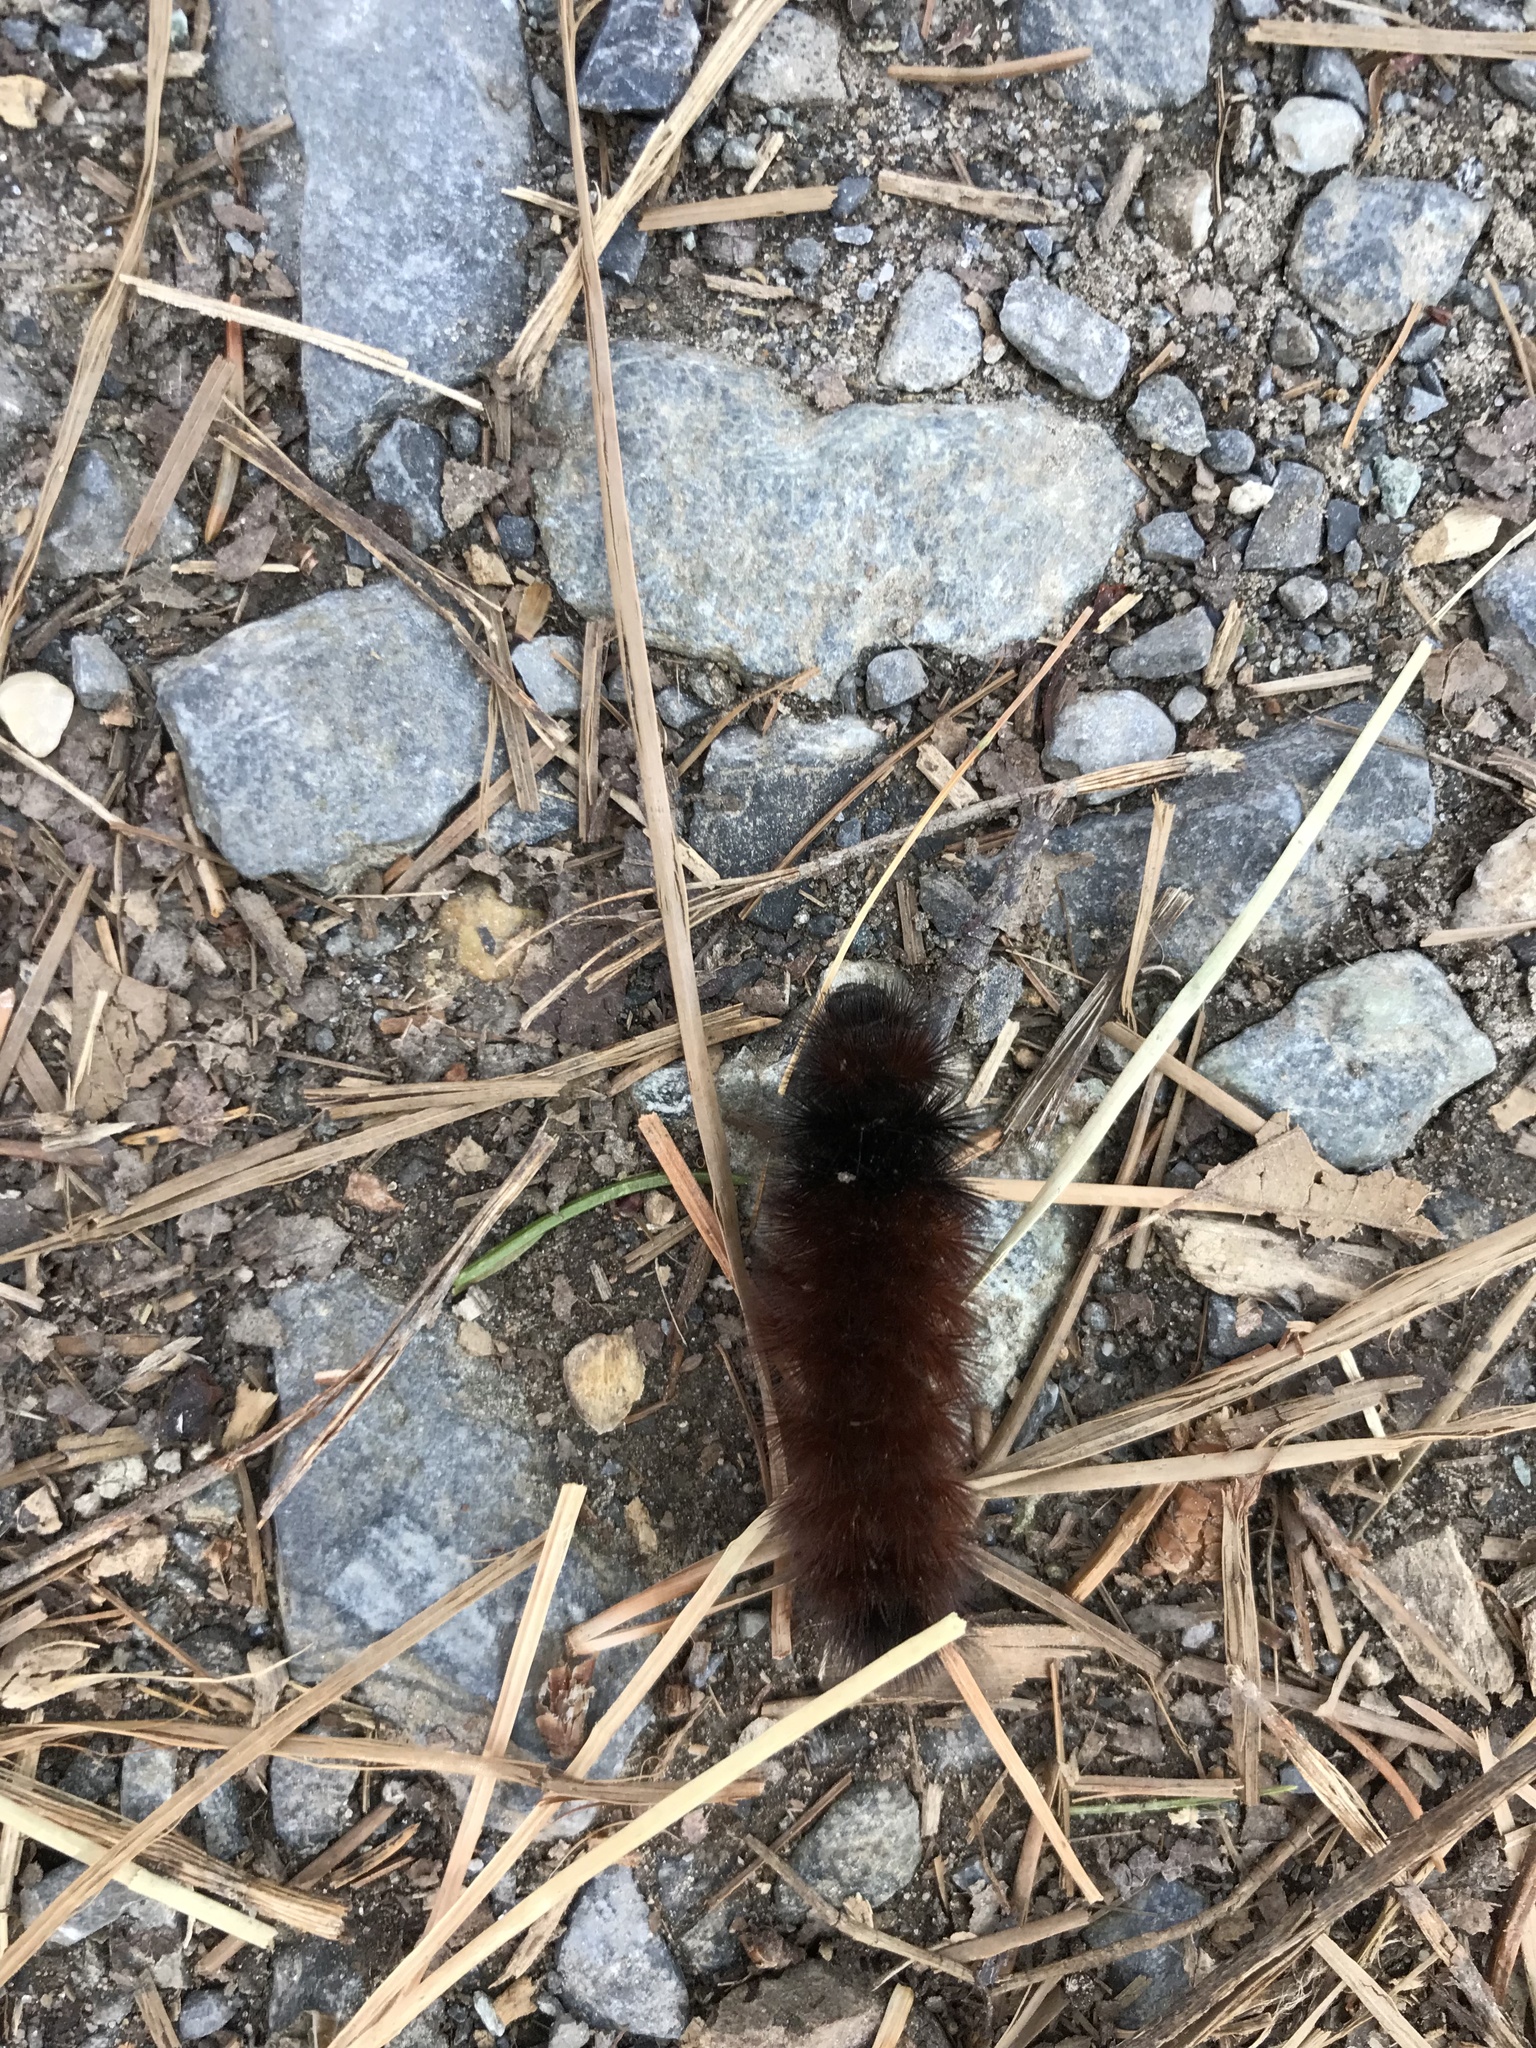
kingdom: Animalia
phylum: Arthropoda
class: Insecta
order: Lepidoptera
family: Erebidae
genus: Pyrrharctia
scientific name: Pyrrharctia isabella
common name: Isabella tiger moth
